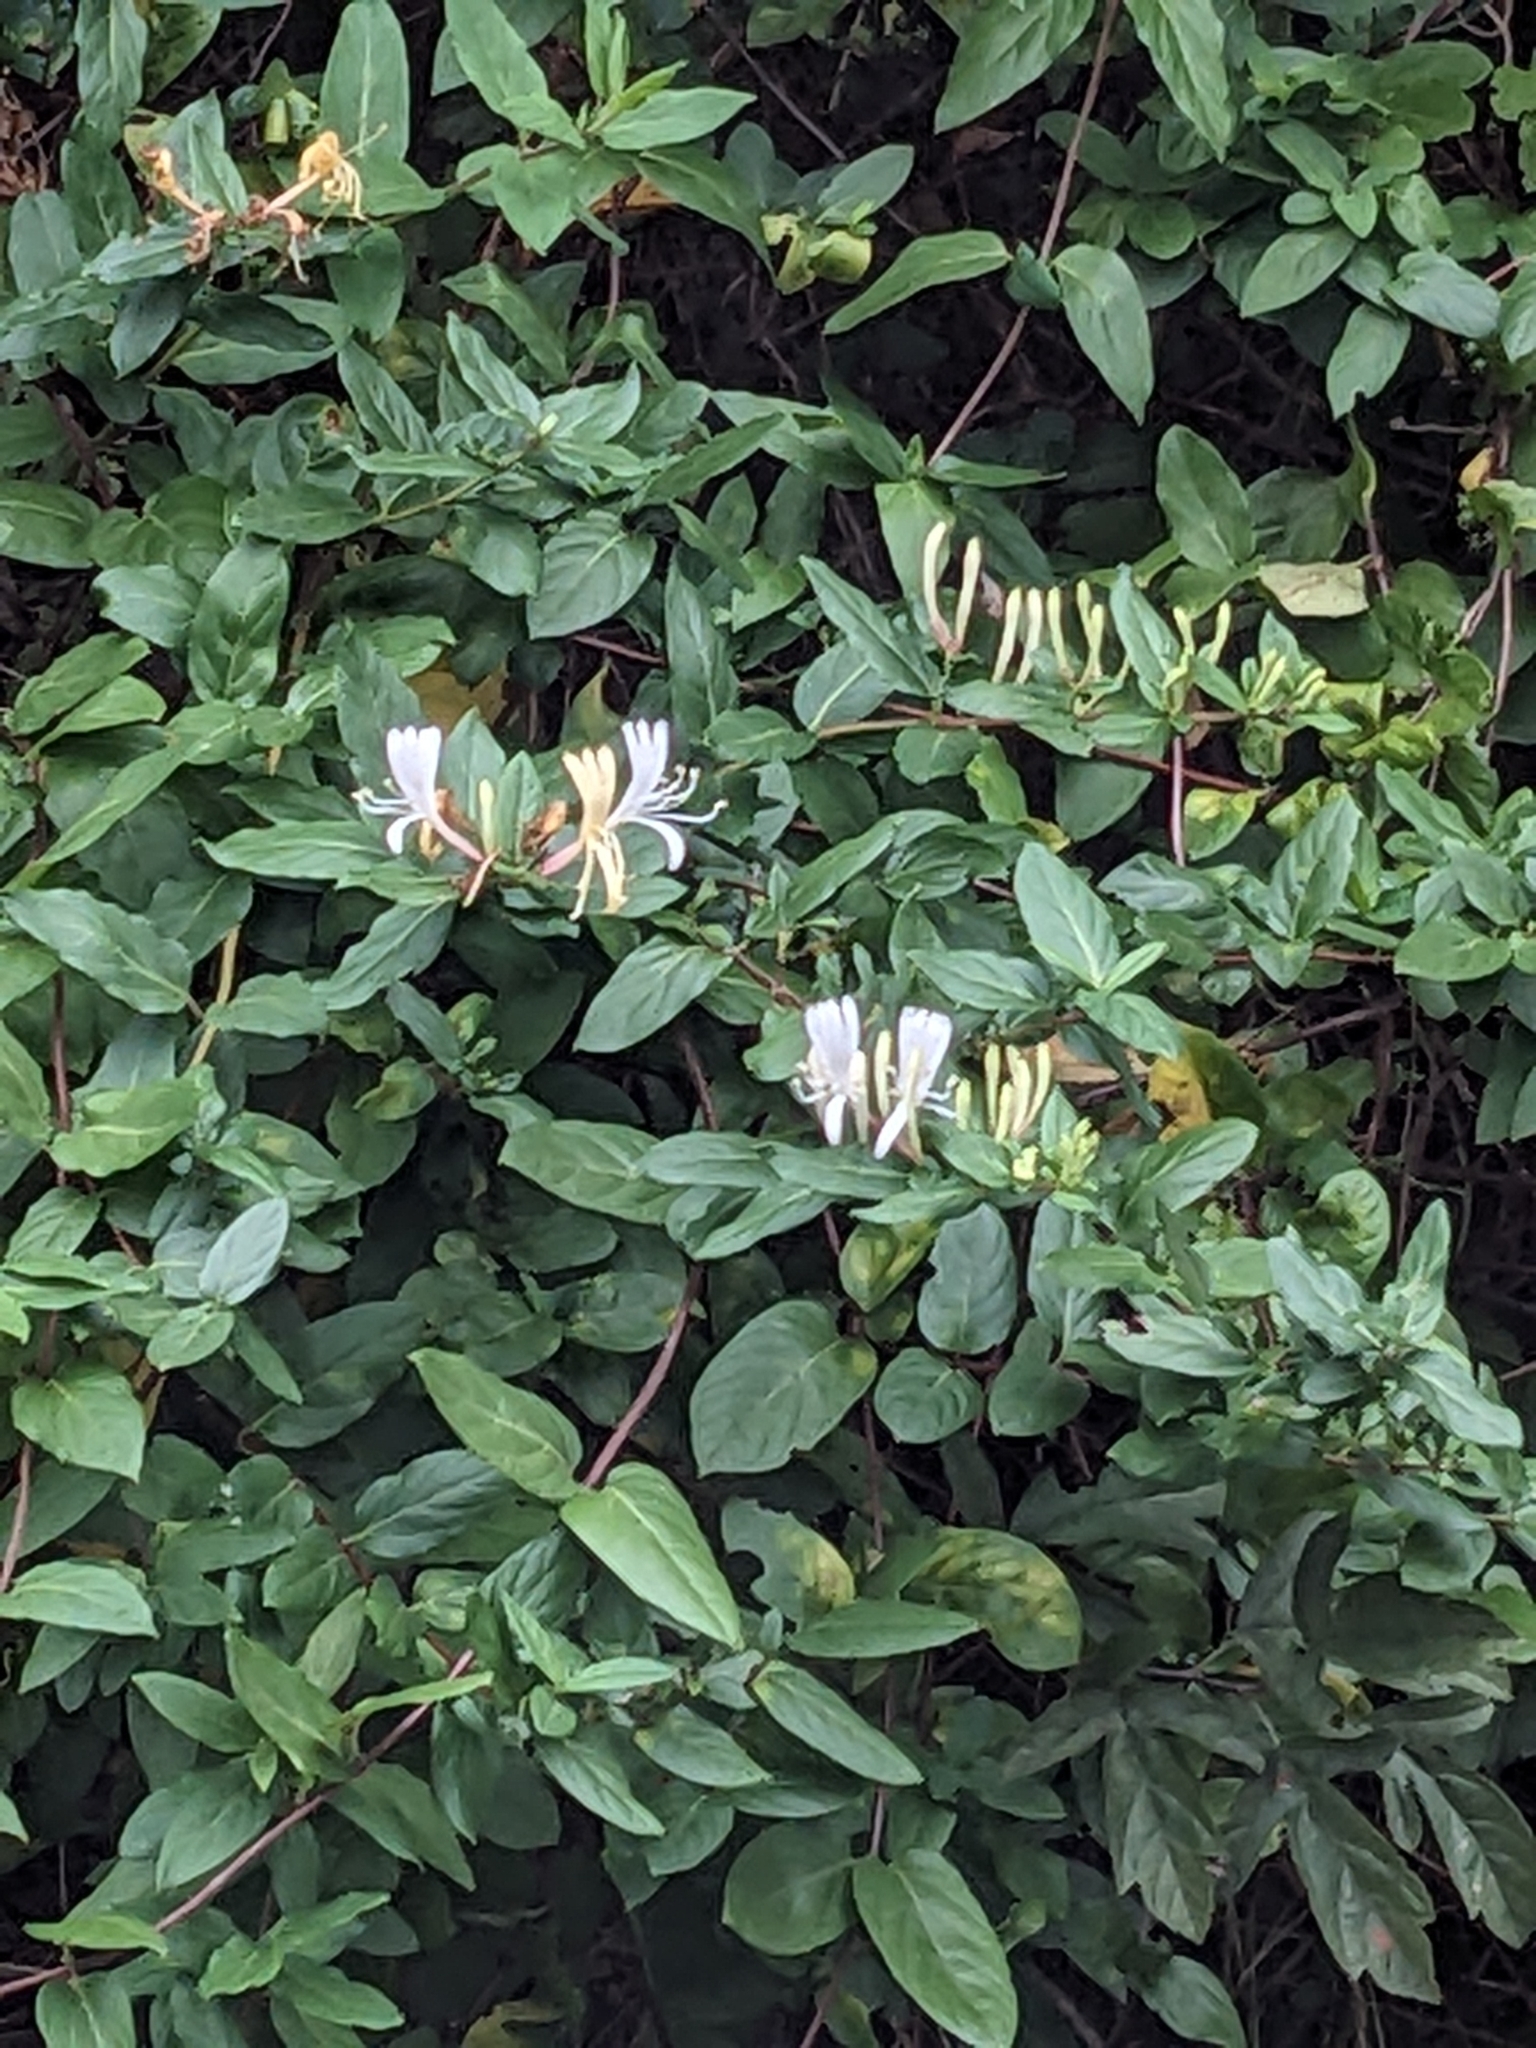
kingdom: Plantae
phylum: Tracheophyta
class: Magnoliopsida
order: Dipsacales
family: Caprifoliaceae
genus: Lonicera
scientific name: Lonicera japonica
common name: Japanese honeysuckle
